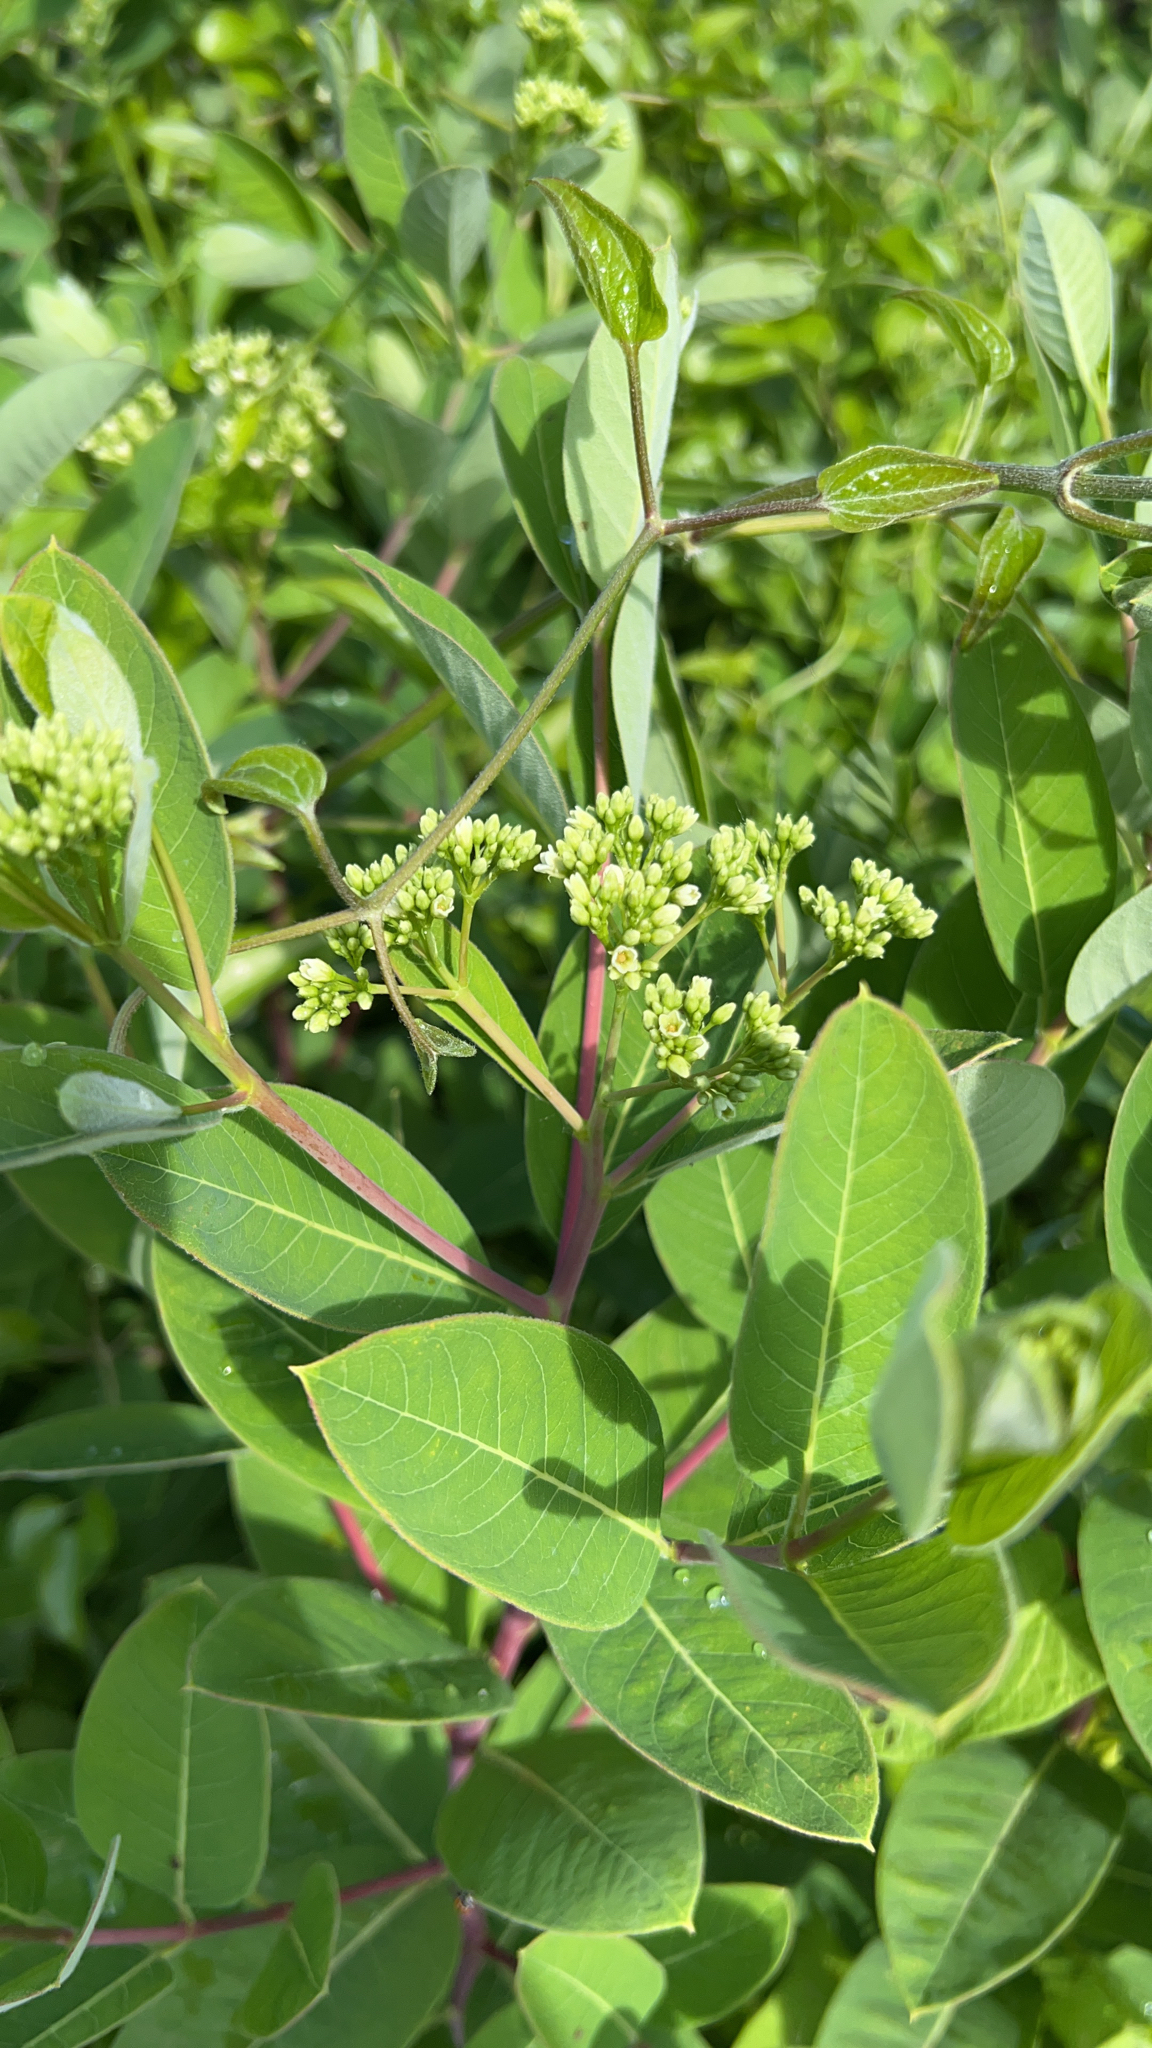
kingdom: Plantae
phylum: Tracheophyta
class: Magnoliopsida
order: Gentianales
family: Apocynaceae
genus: Apocynum
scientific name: Apocynum cannabinum
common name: Hemp dogbane
